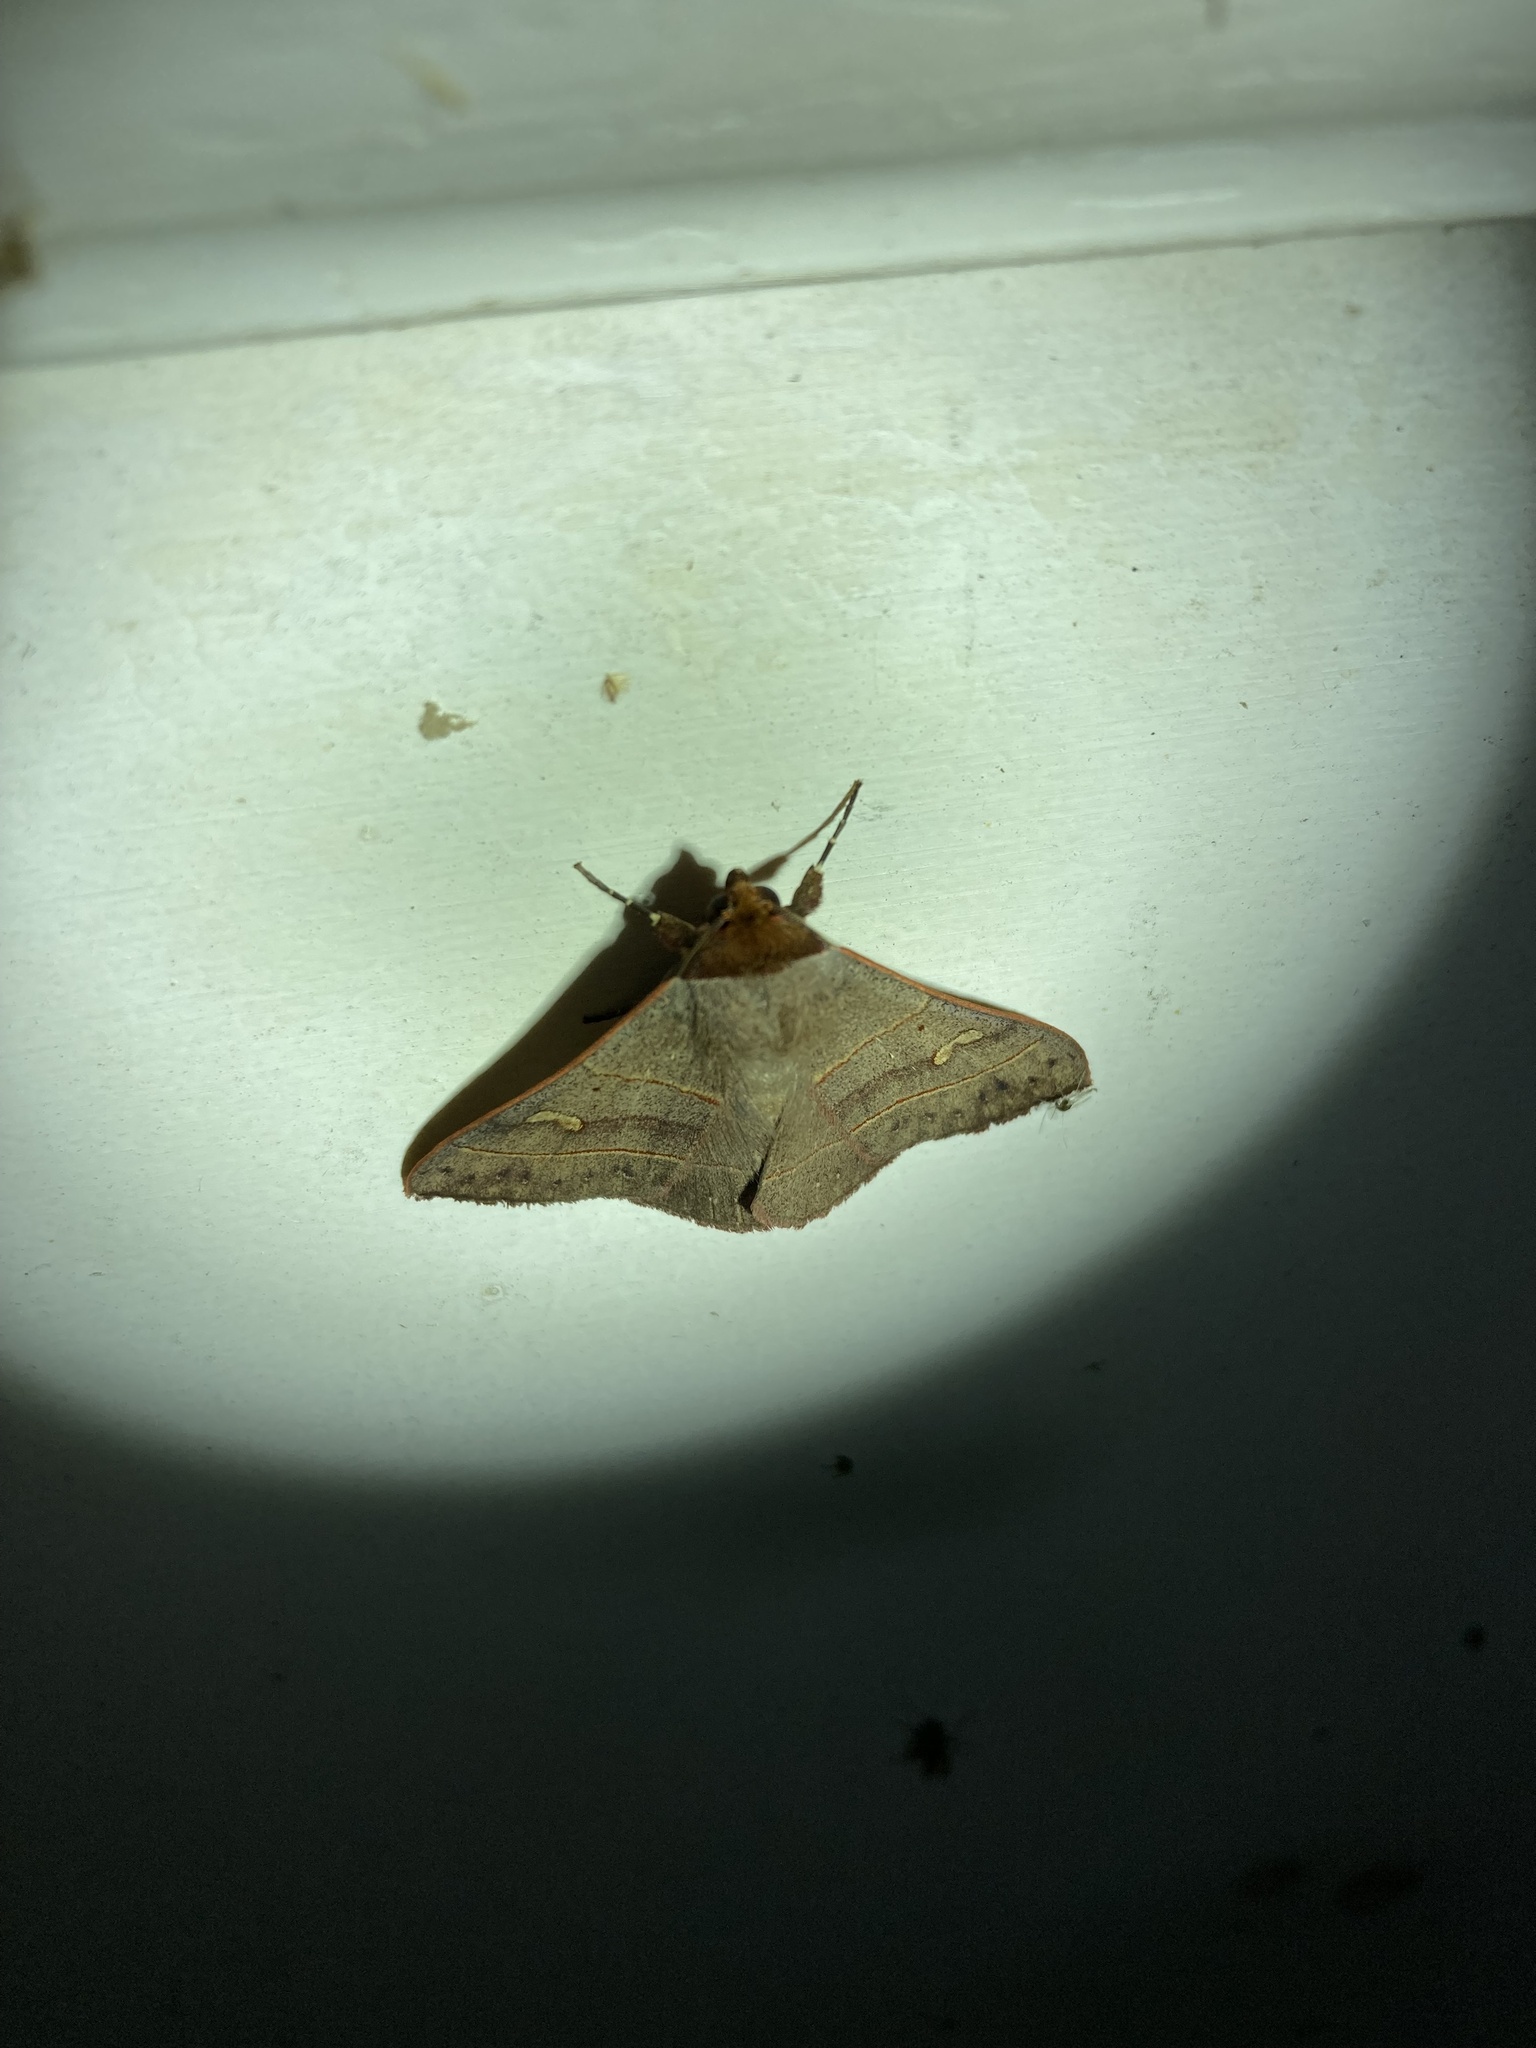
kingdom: Animalia
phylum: Arthropoda
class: Insecta
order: Lepidoptera
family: Erebidae
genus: Panopoda
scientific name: Panopoda rufimargo
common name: Red-lined panopoda moth
